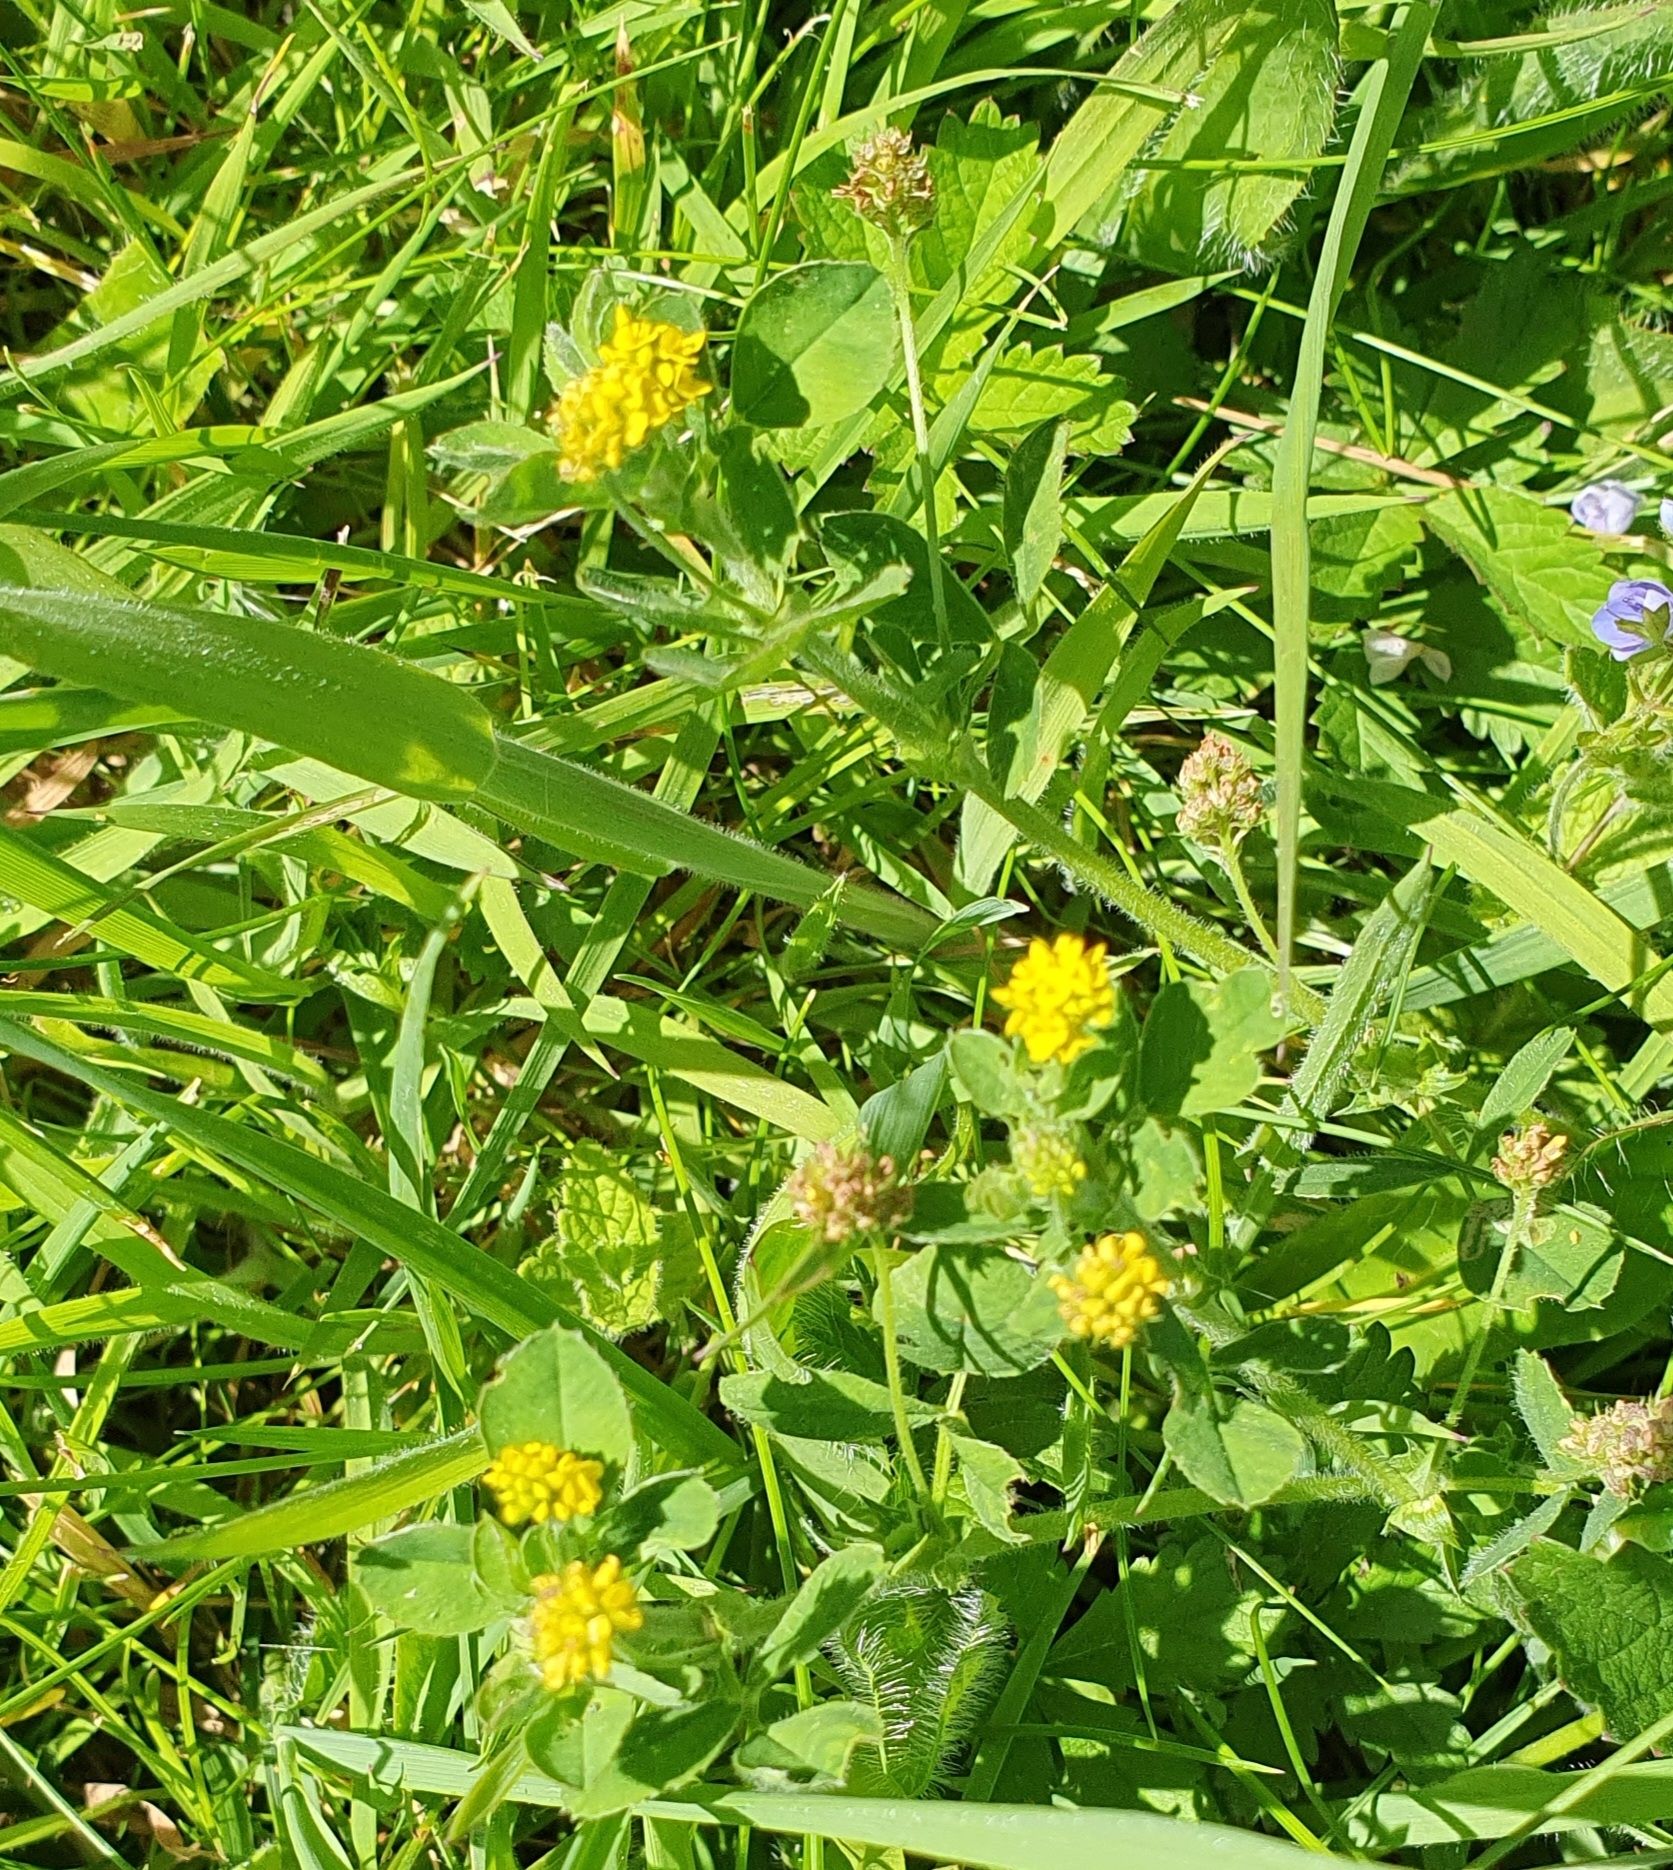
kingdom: Plantae
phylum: Tracheophyta
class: Magnoliopsida
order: Fabales
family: Fabaceae
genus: Medicago
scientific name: Medicago lupulina
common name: Black medick
